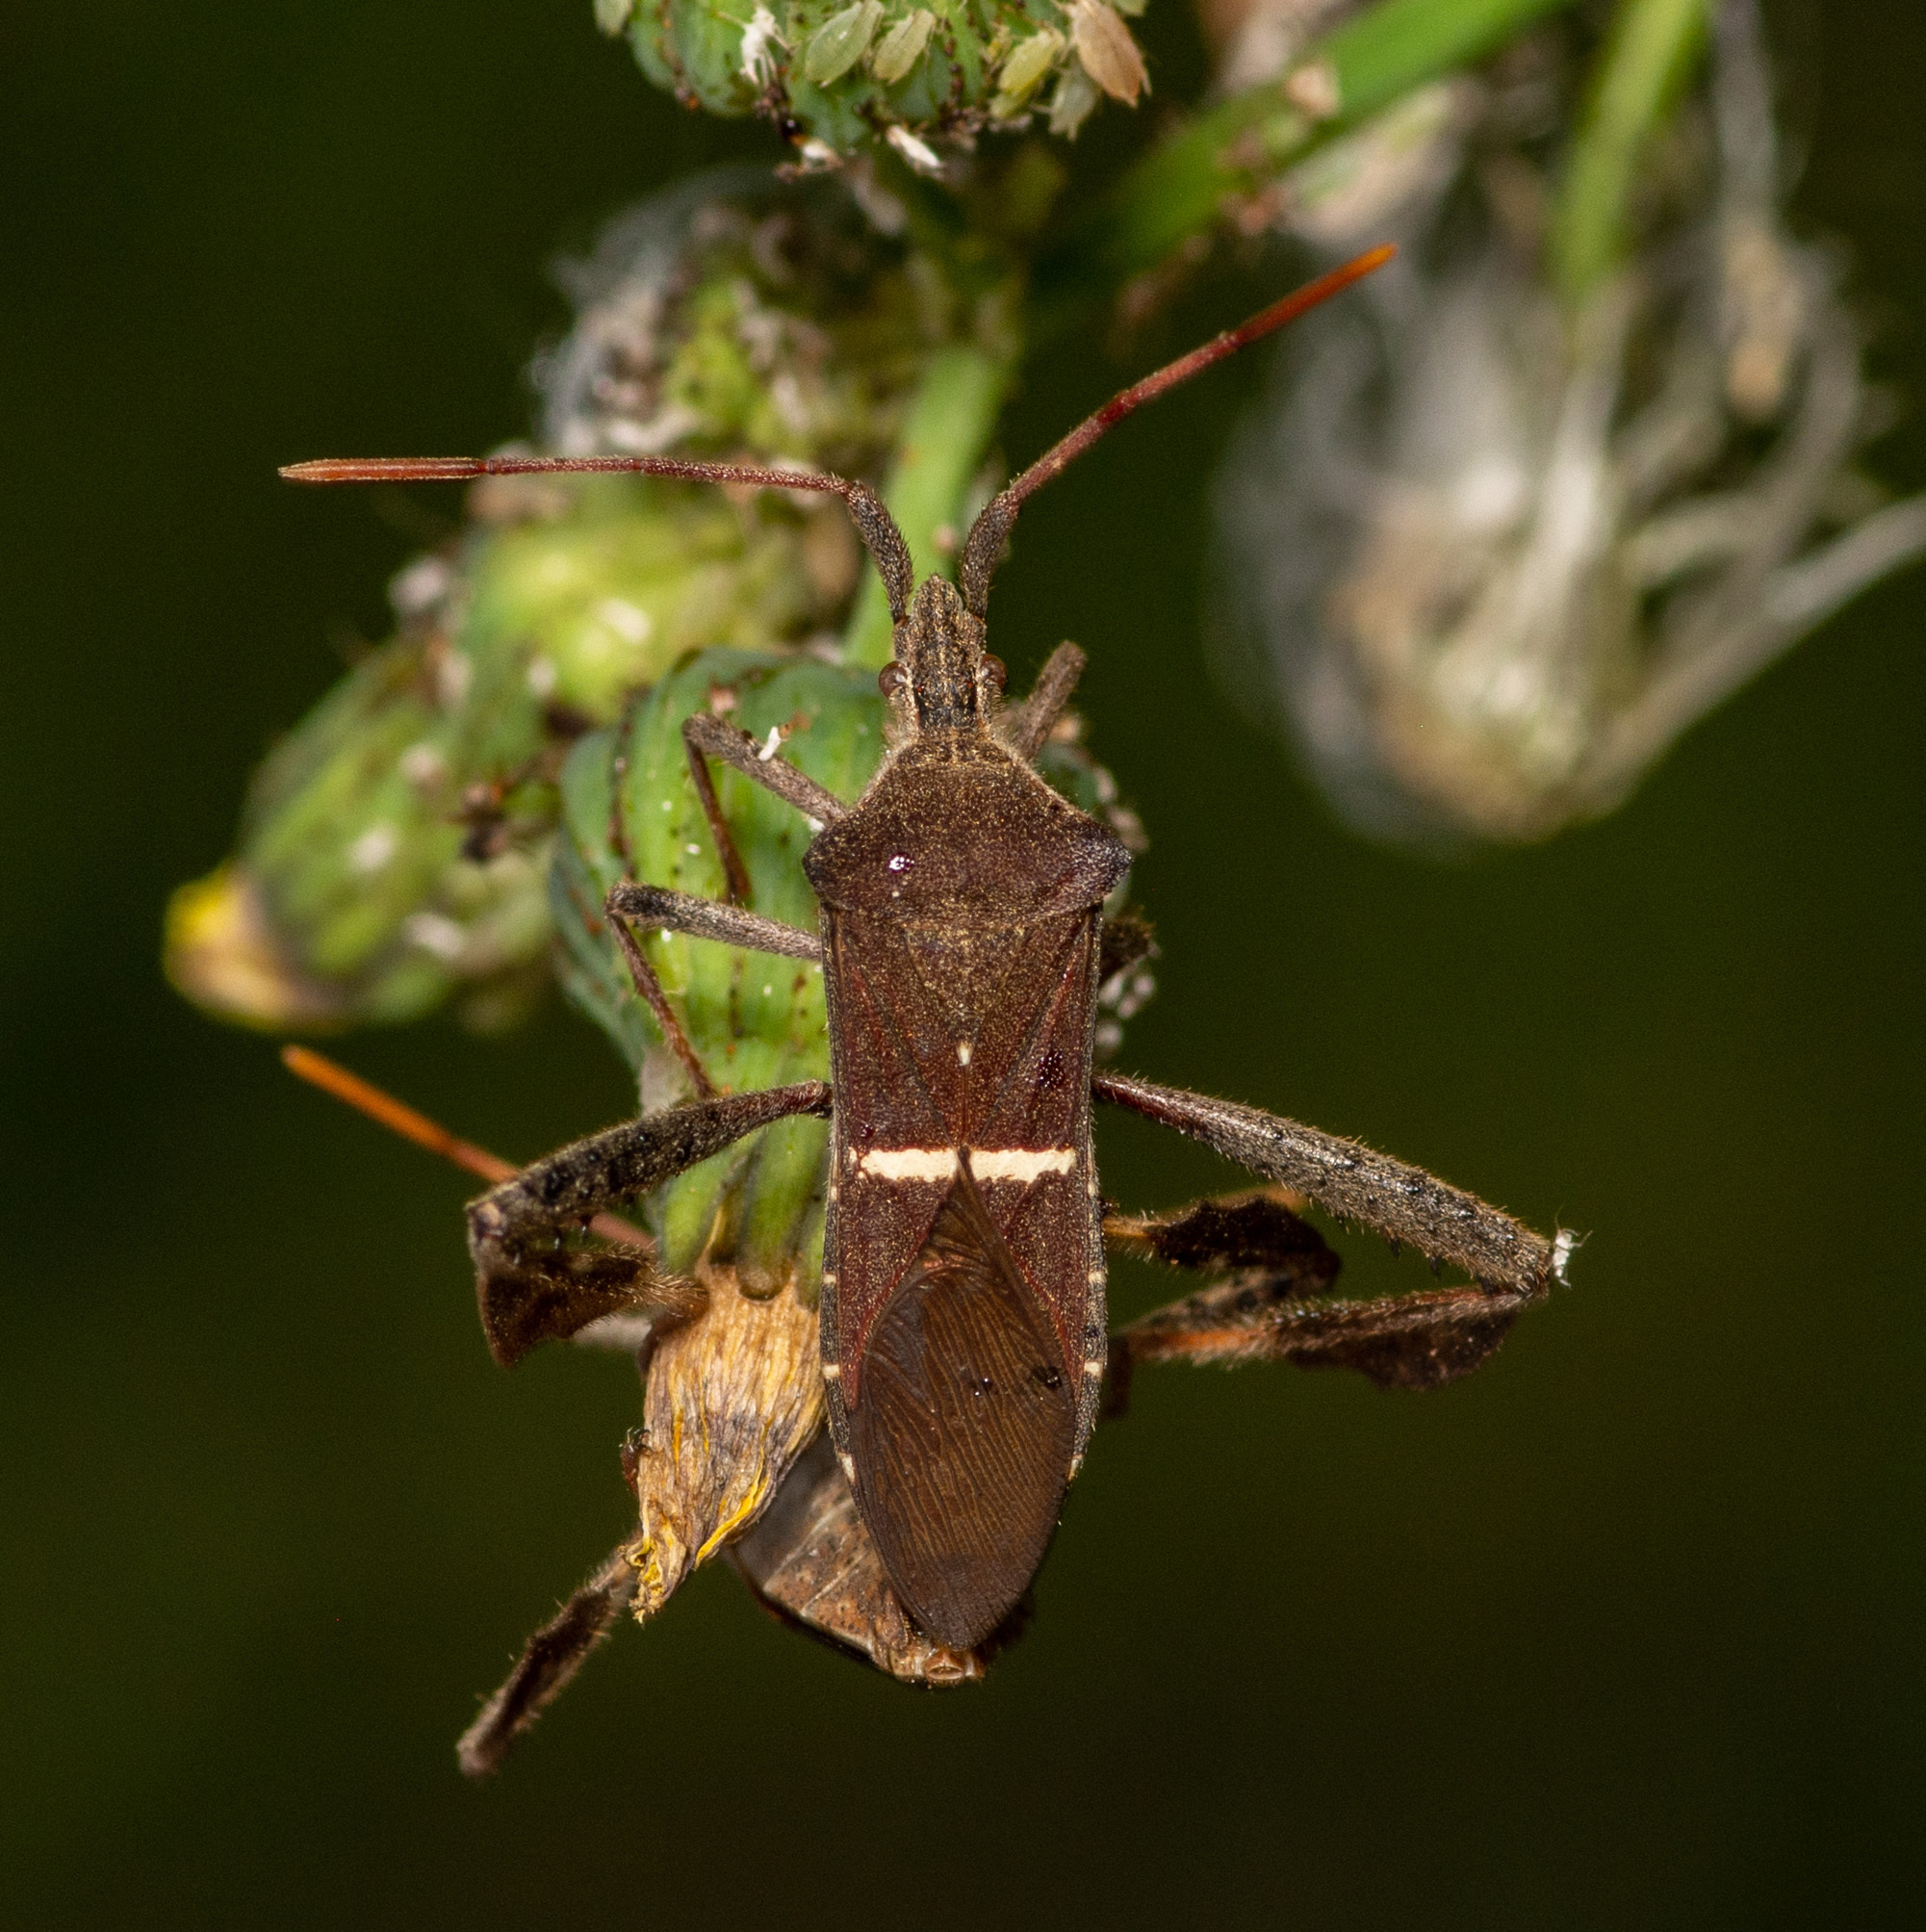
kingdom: Animalia
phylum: Arthropoda
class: Insecta
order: Hemiptera
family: Coreidae
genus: Leptoglossus
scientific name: Leptoglossus phyllopus
